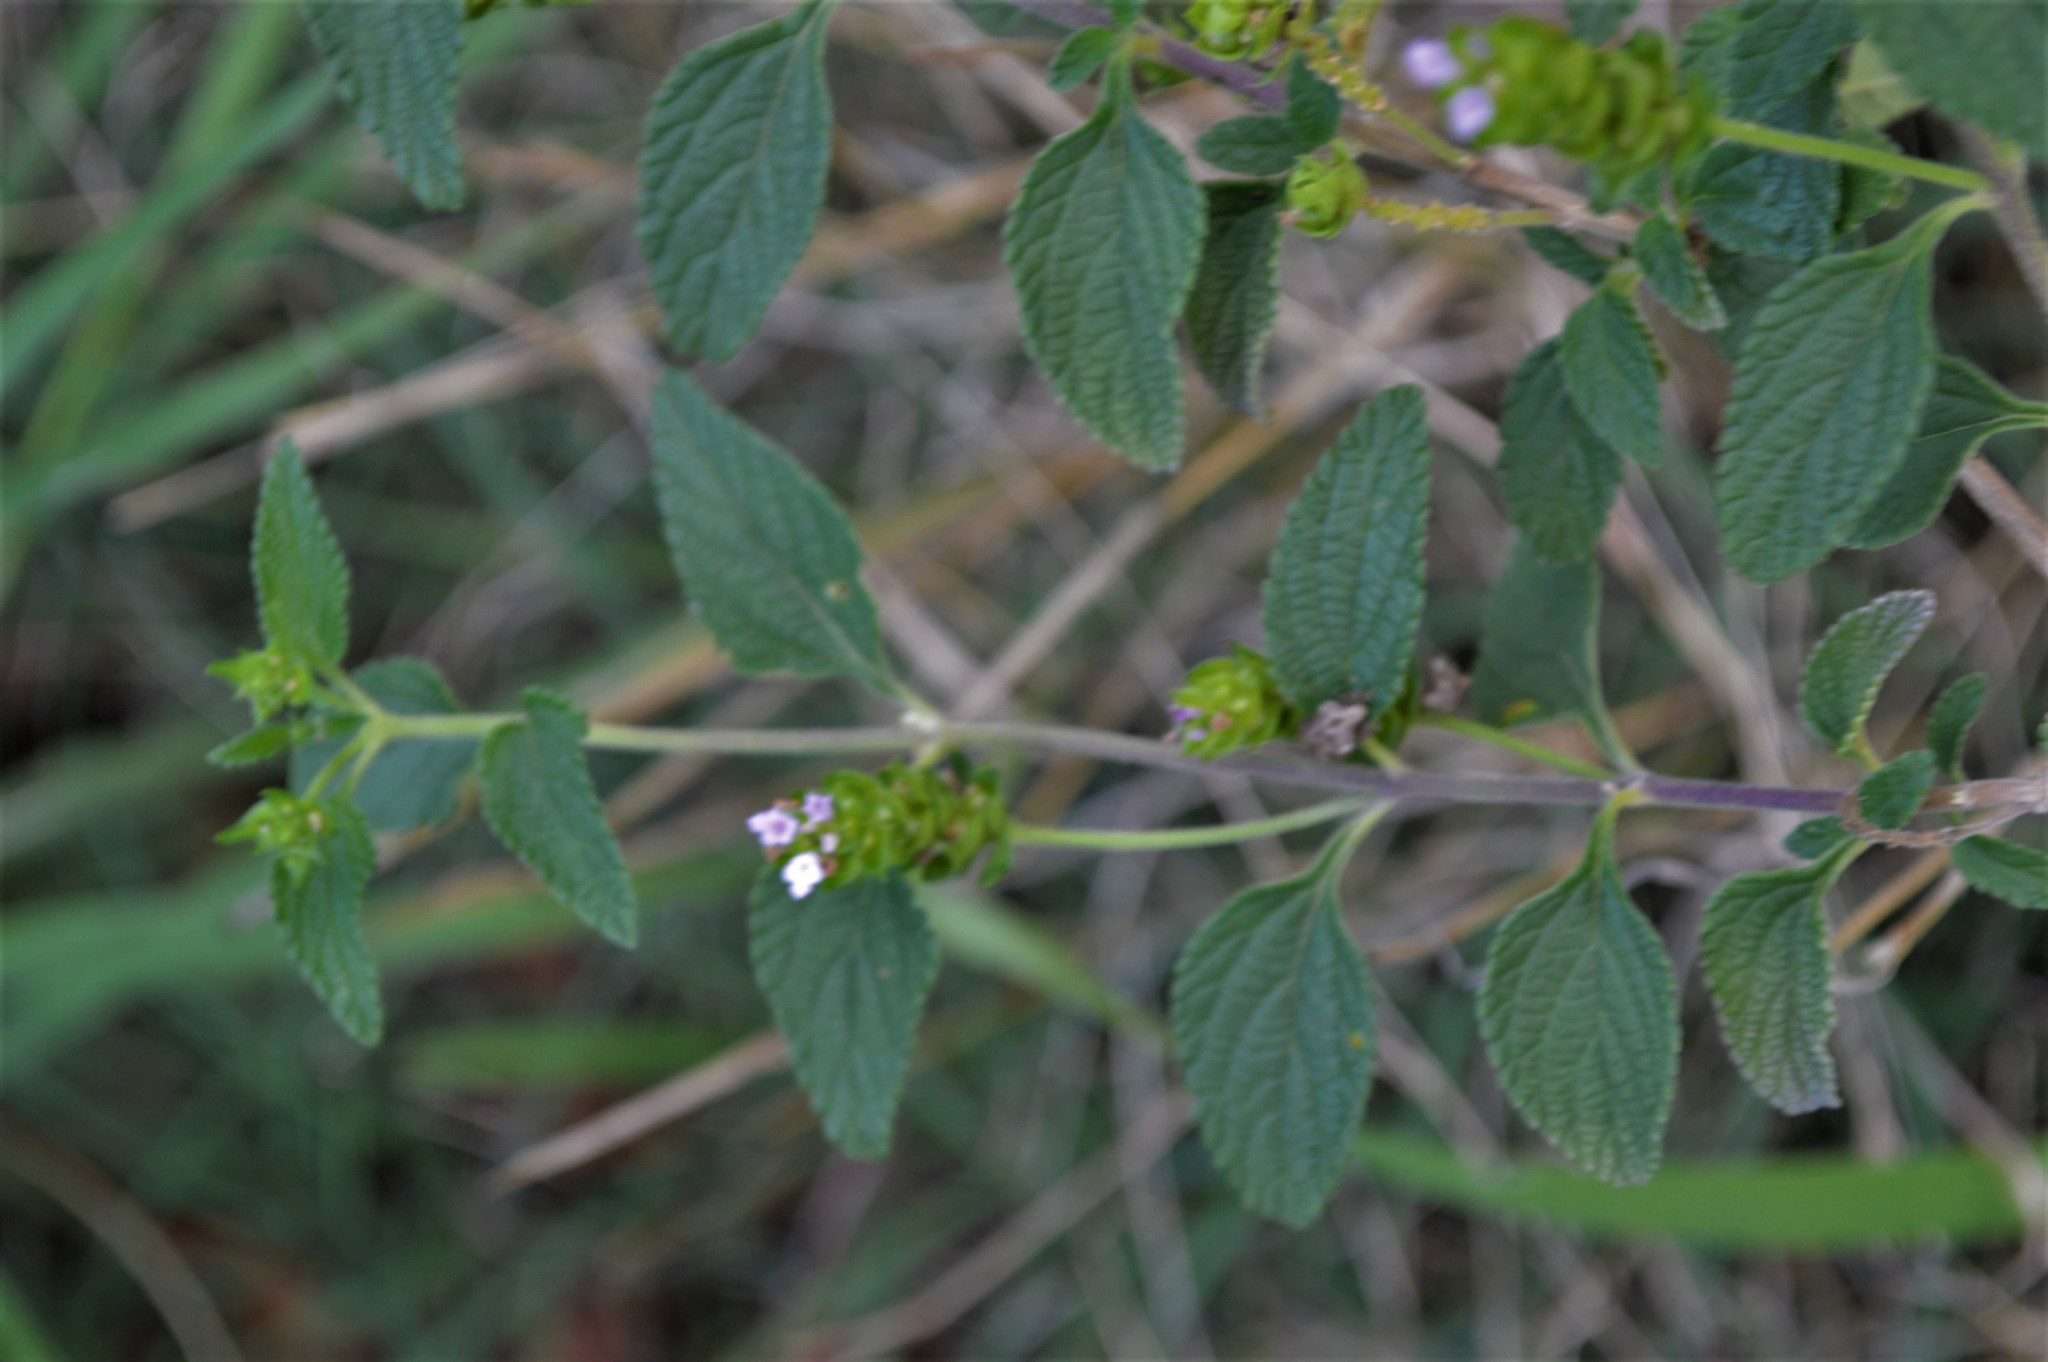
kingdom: Plantae
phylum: Tracheophyta
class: Magnoliopsida
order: Lamiales
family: Verbenaceae
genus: Lantana
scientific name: Lantana rugosa
